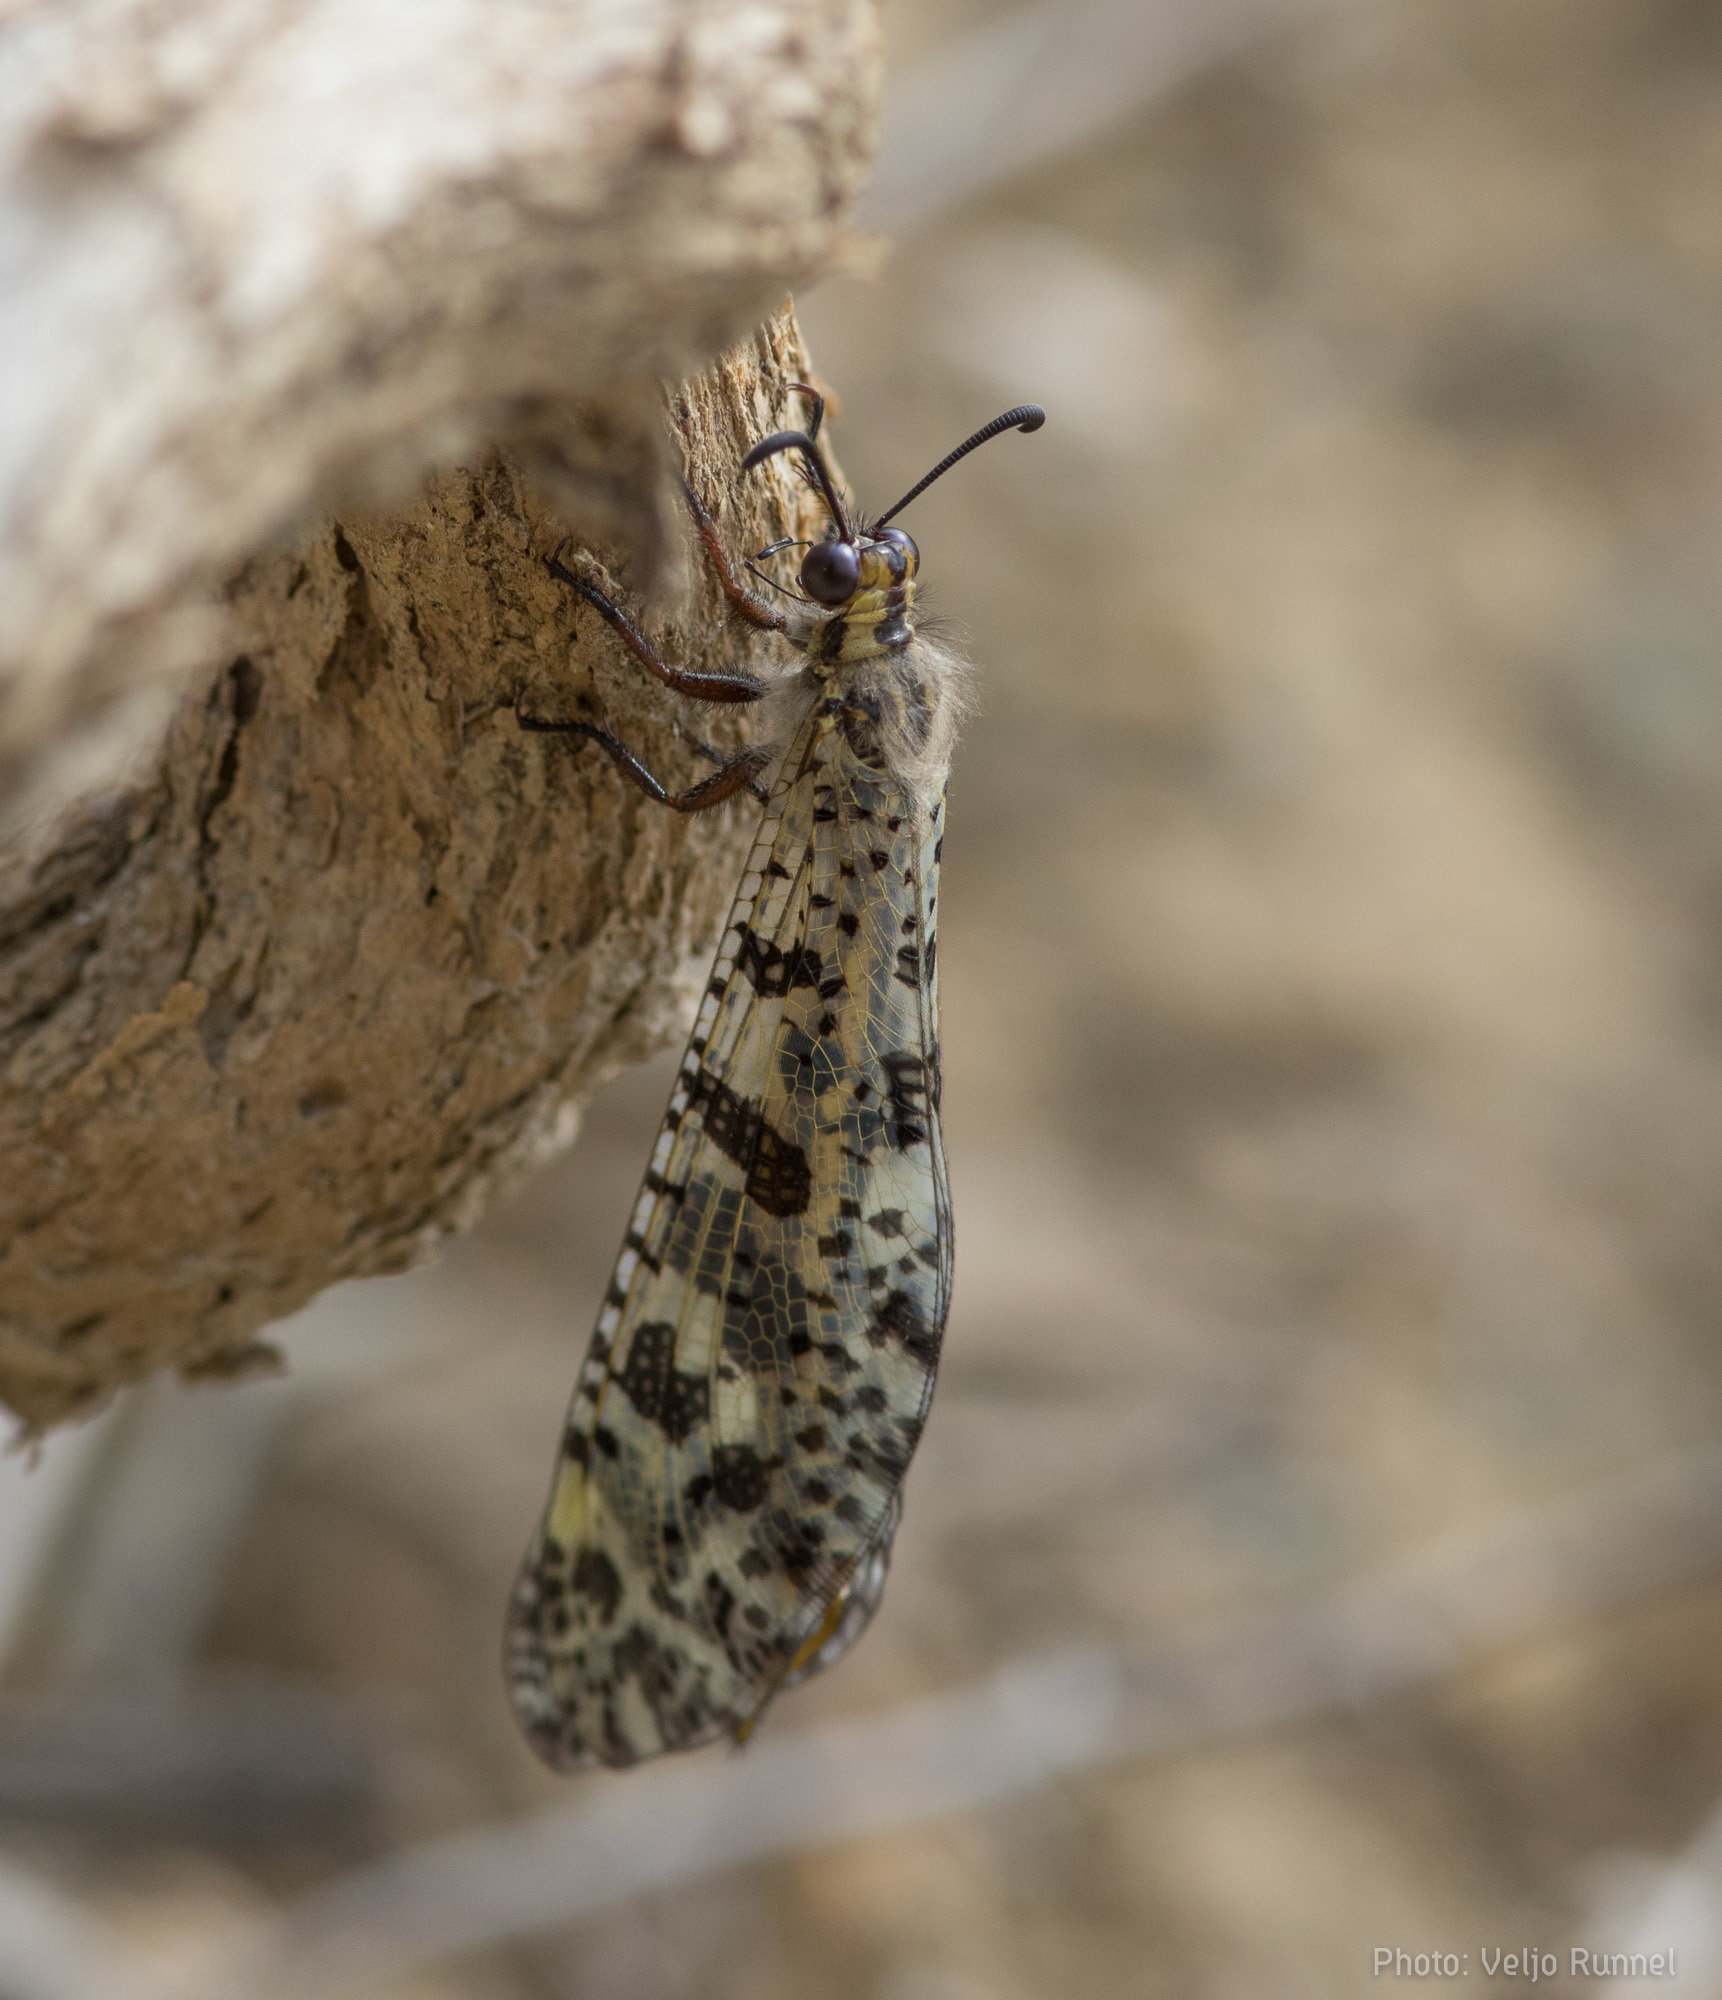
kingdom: Animalia
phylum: Arthropoda
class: Insecta
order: Neuroptera
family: Myrmeleontidae
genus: Palpares
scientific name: Palpares libelluloides
